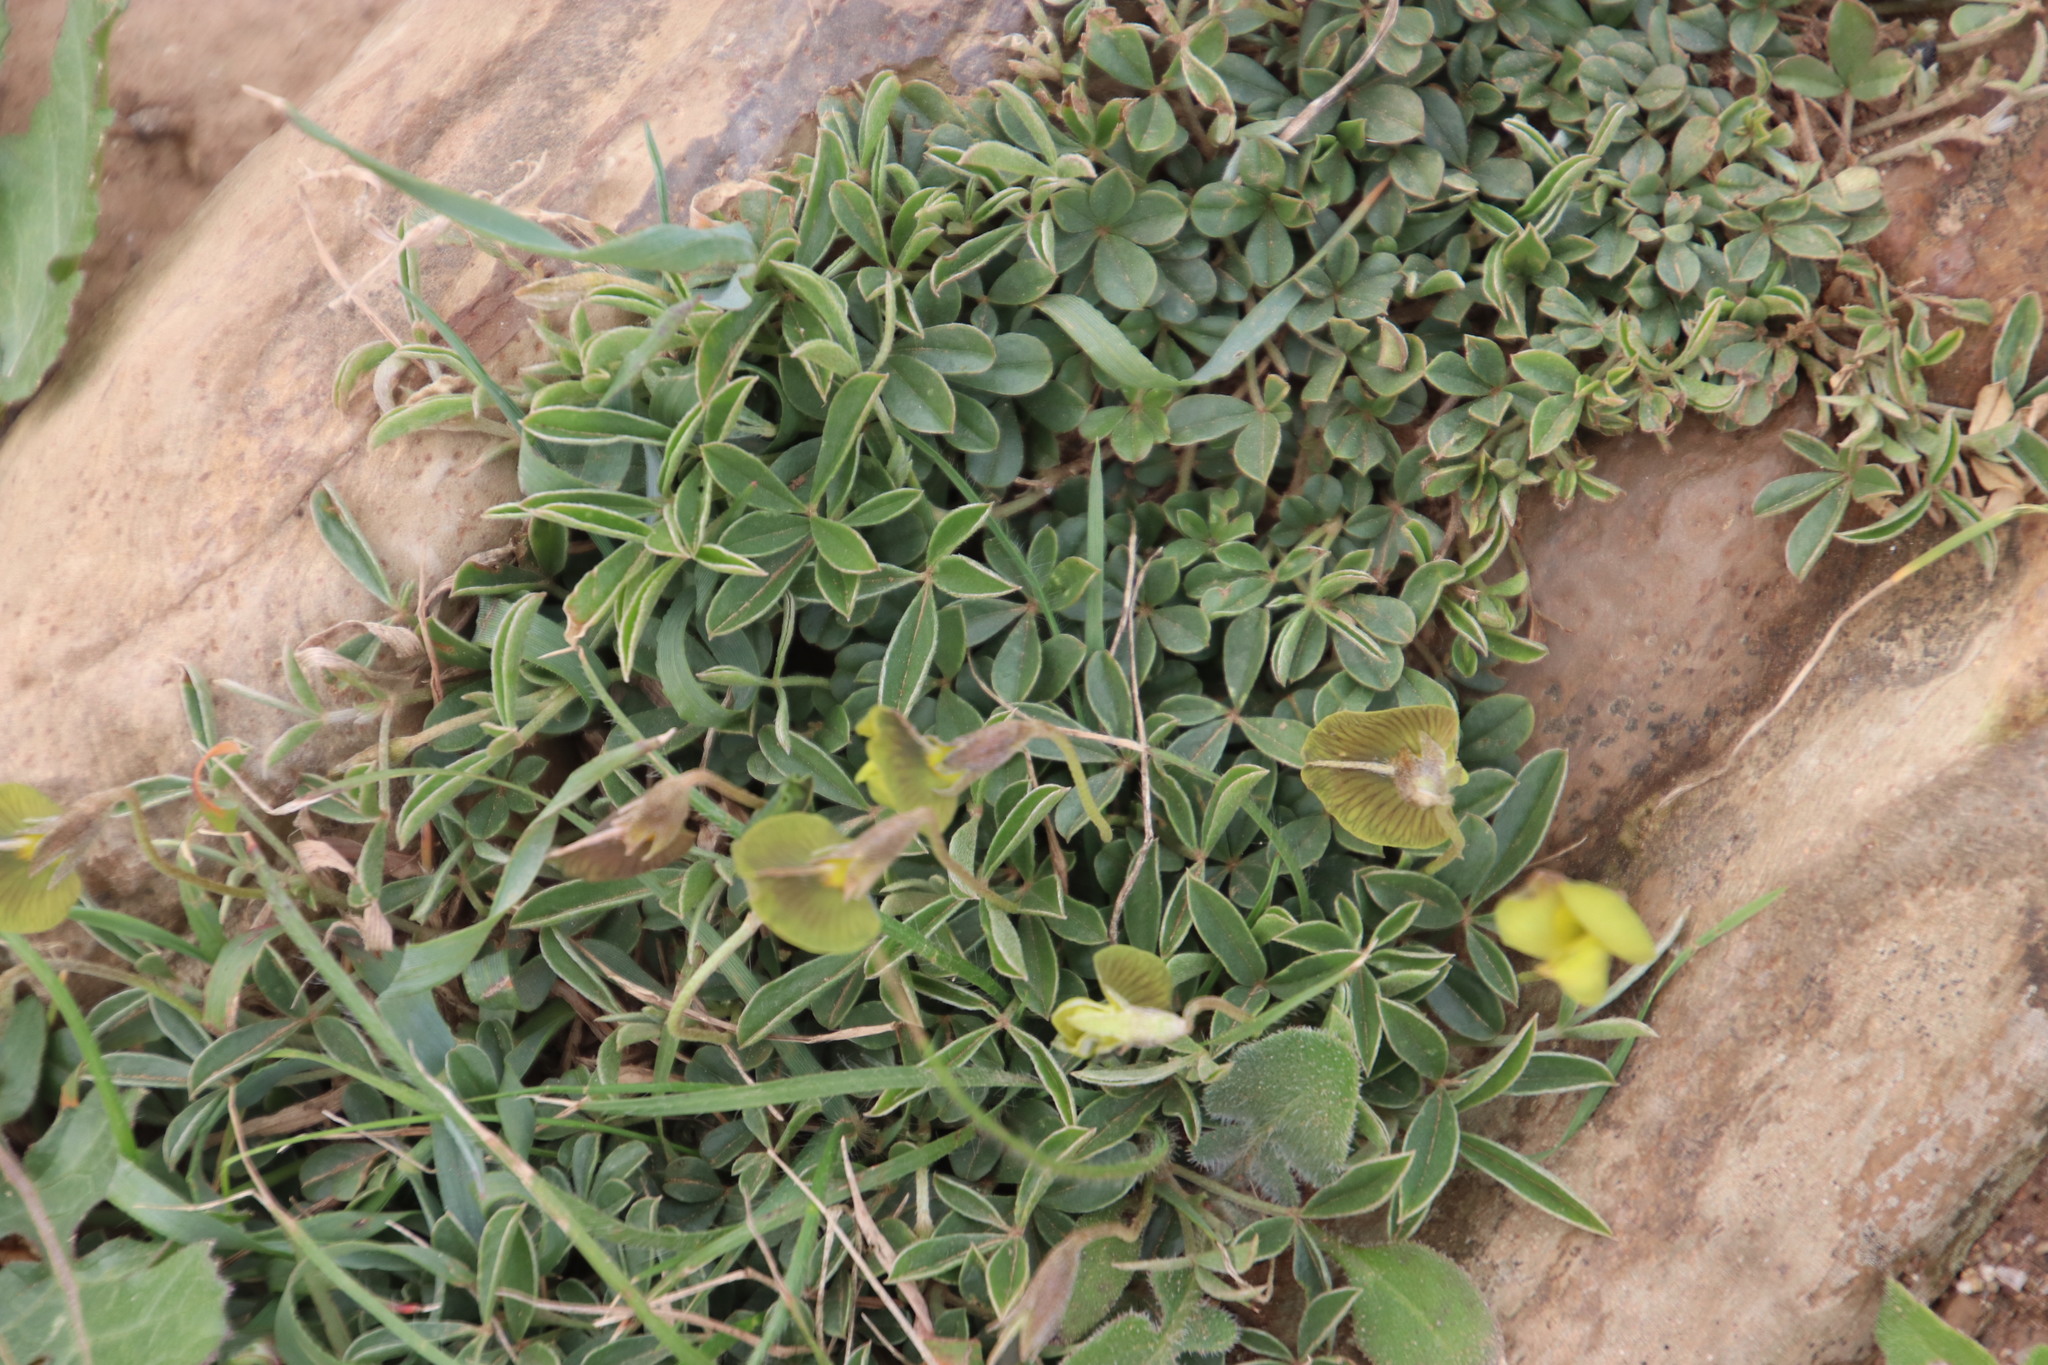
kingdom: Plantae
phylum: Tracheophyta
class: Magnoliopsida
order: Fabales
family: Fabaceae
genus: Lotononis
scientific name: Lotononis prostrata
